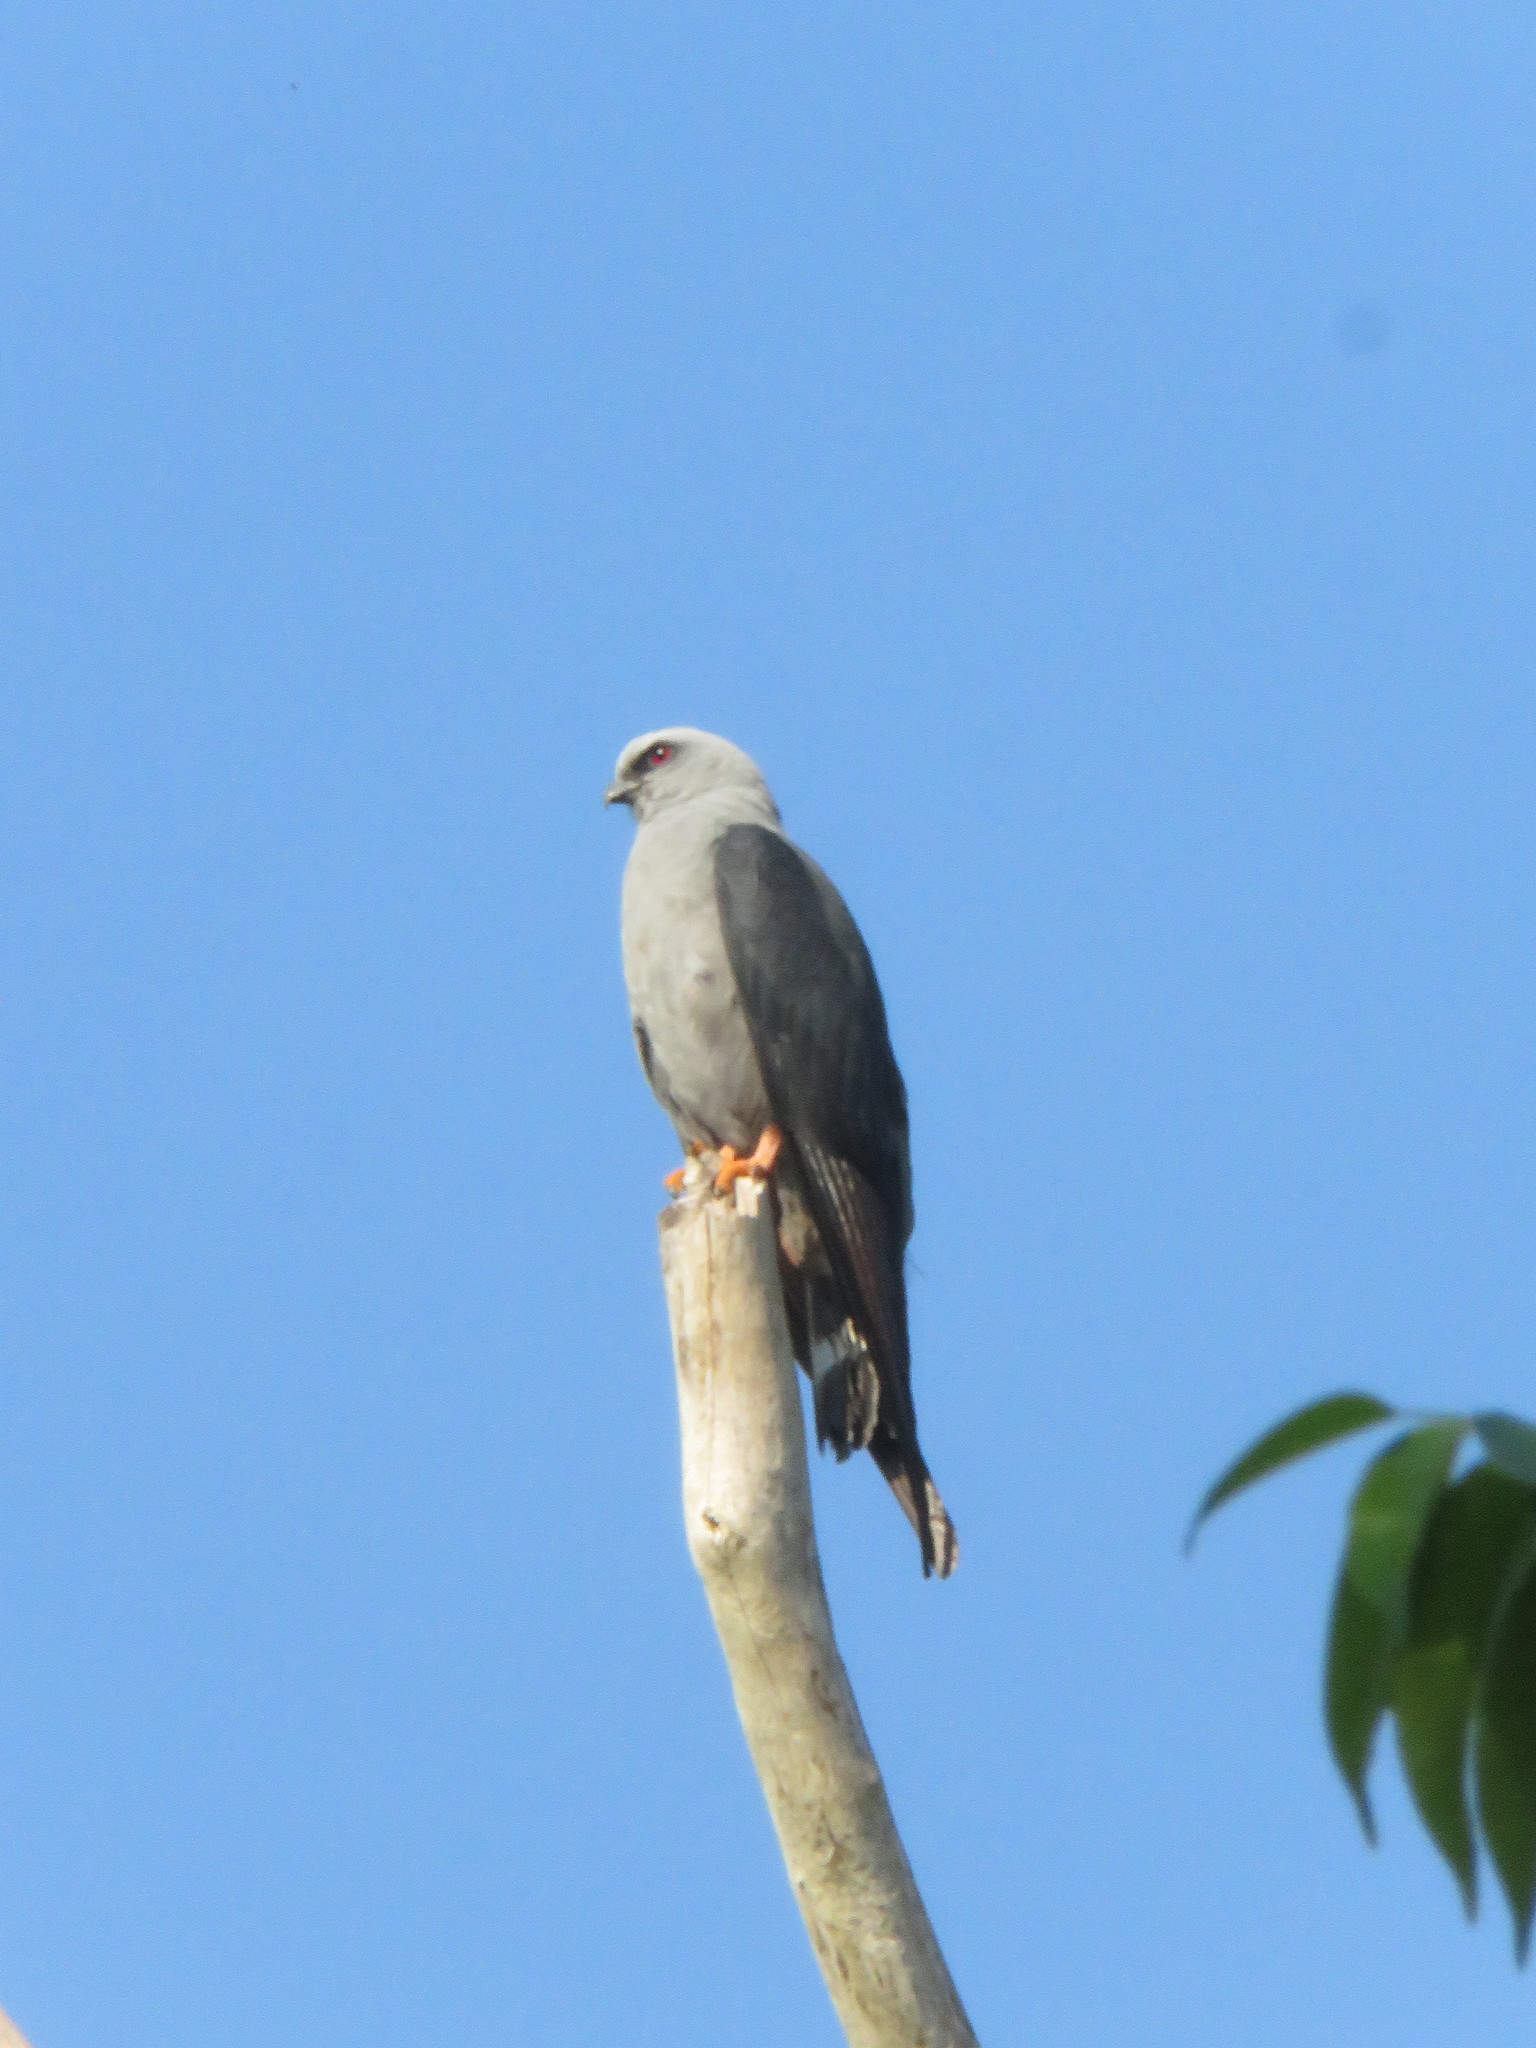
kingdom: Animalia
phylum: Chordata
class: Aves
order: Accipitriformes
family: Accipitridae
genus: Ictinia
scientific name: Ictinia plumbea
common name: Plumbeous kite
